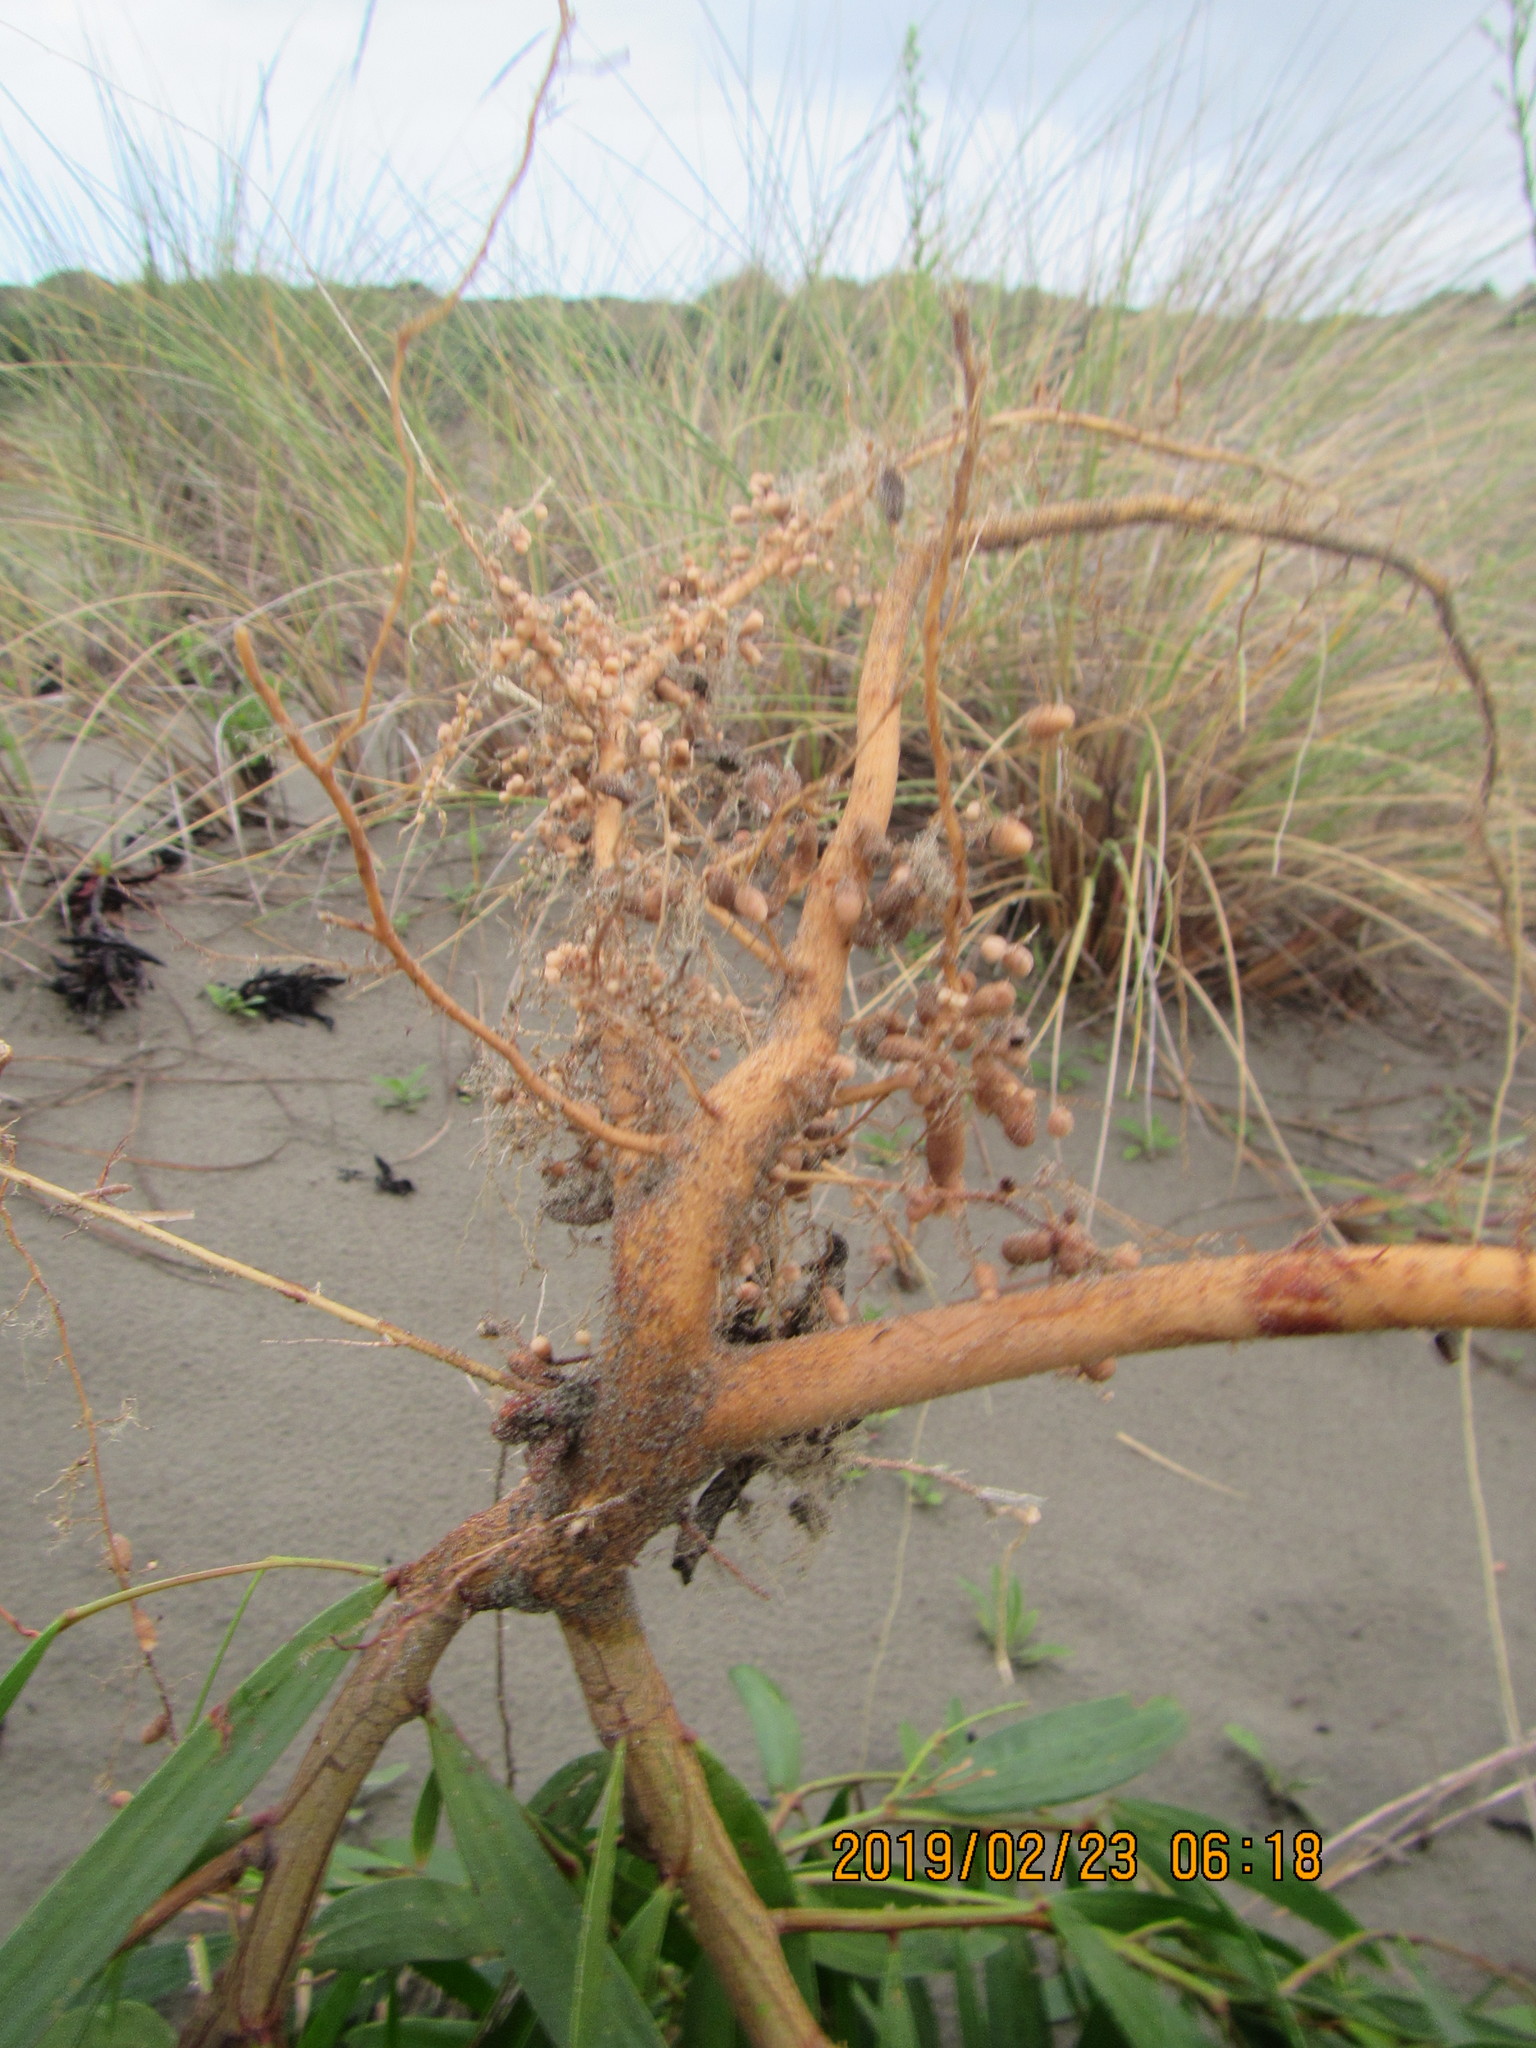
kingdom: Plantae
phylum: Tracheophyta
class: Magnoliopsida
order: Fabales
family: Fabaceae
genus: Acacia
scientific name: Acacia longifolia
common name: Sydney golden wattle
